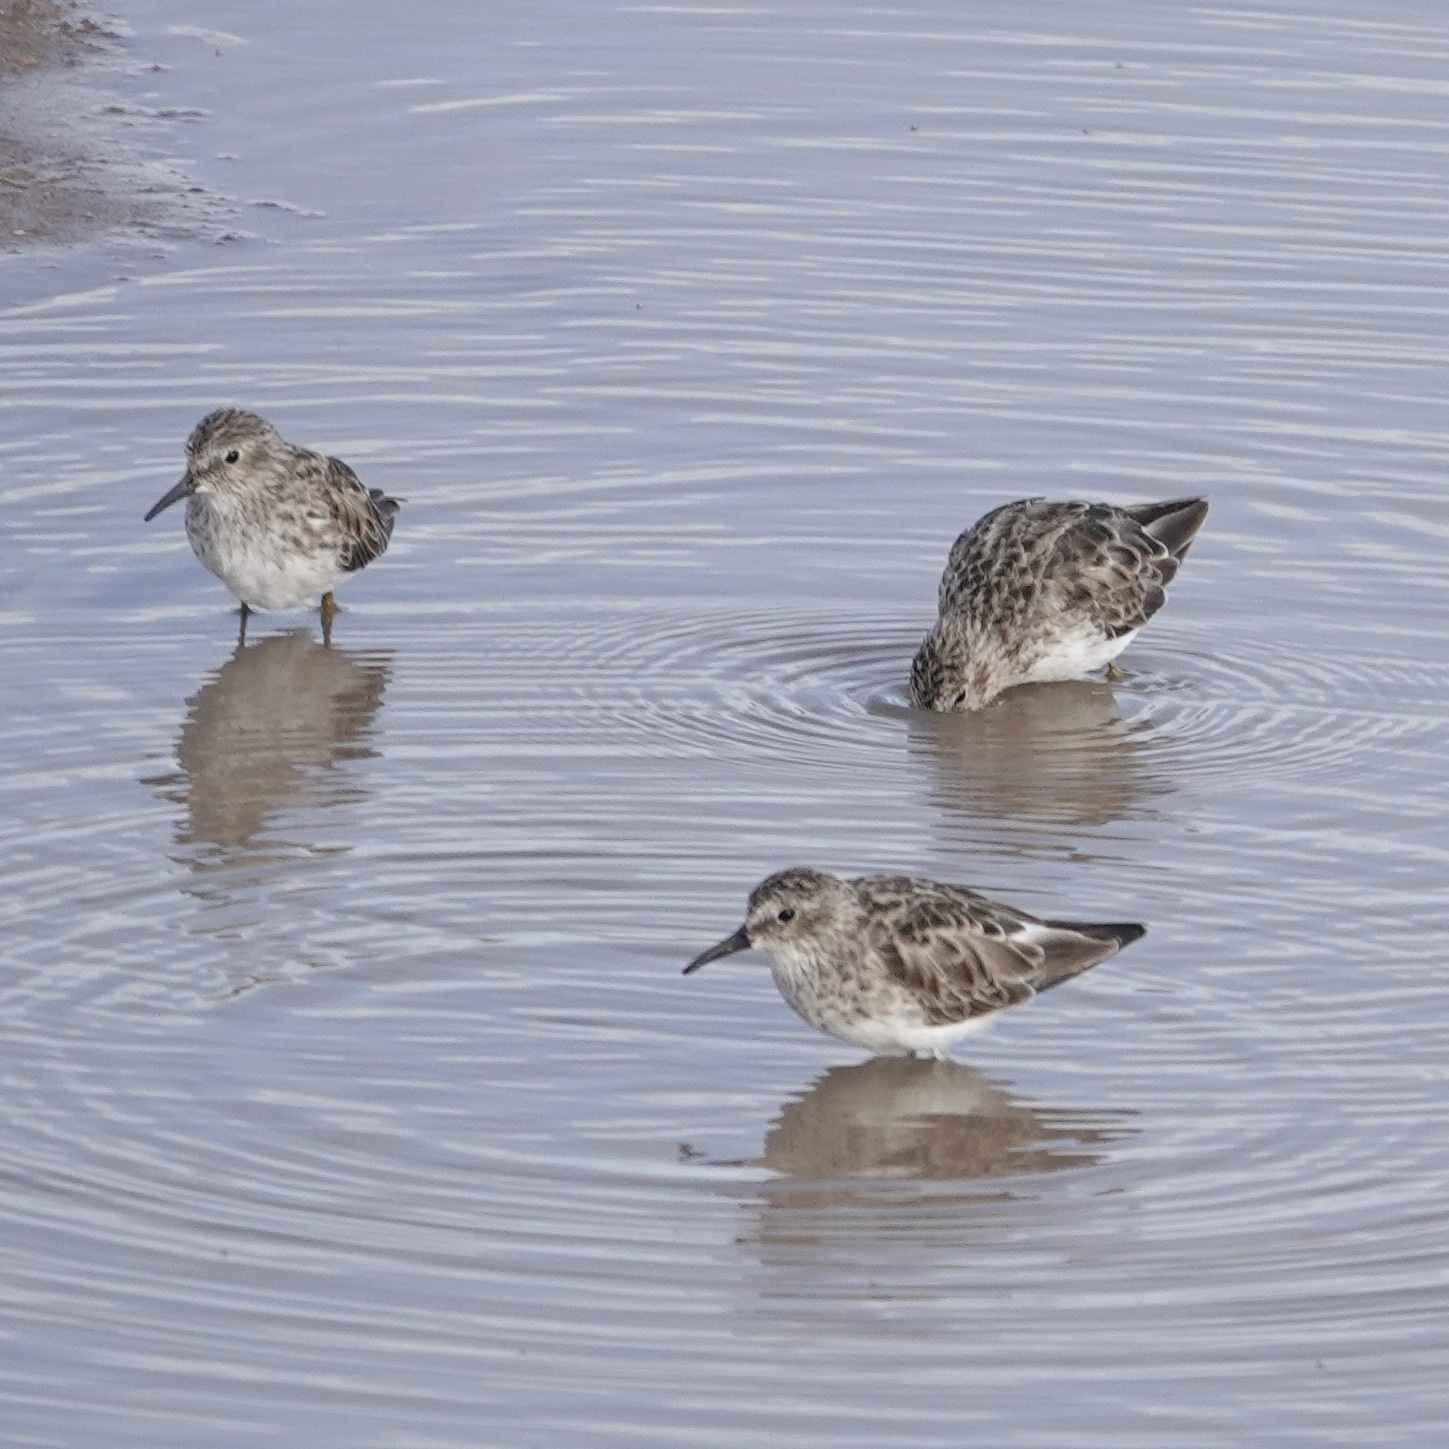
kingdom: Animalia
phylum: Chordata
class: Aves
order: Charadriiformes
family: Scolopacidae
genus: Calidris
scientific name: Calidris minutilla
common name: Least sandpiper
